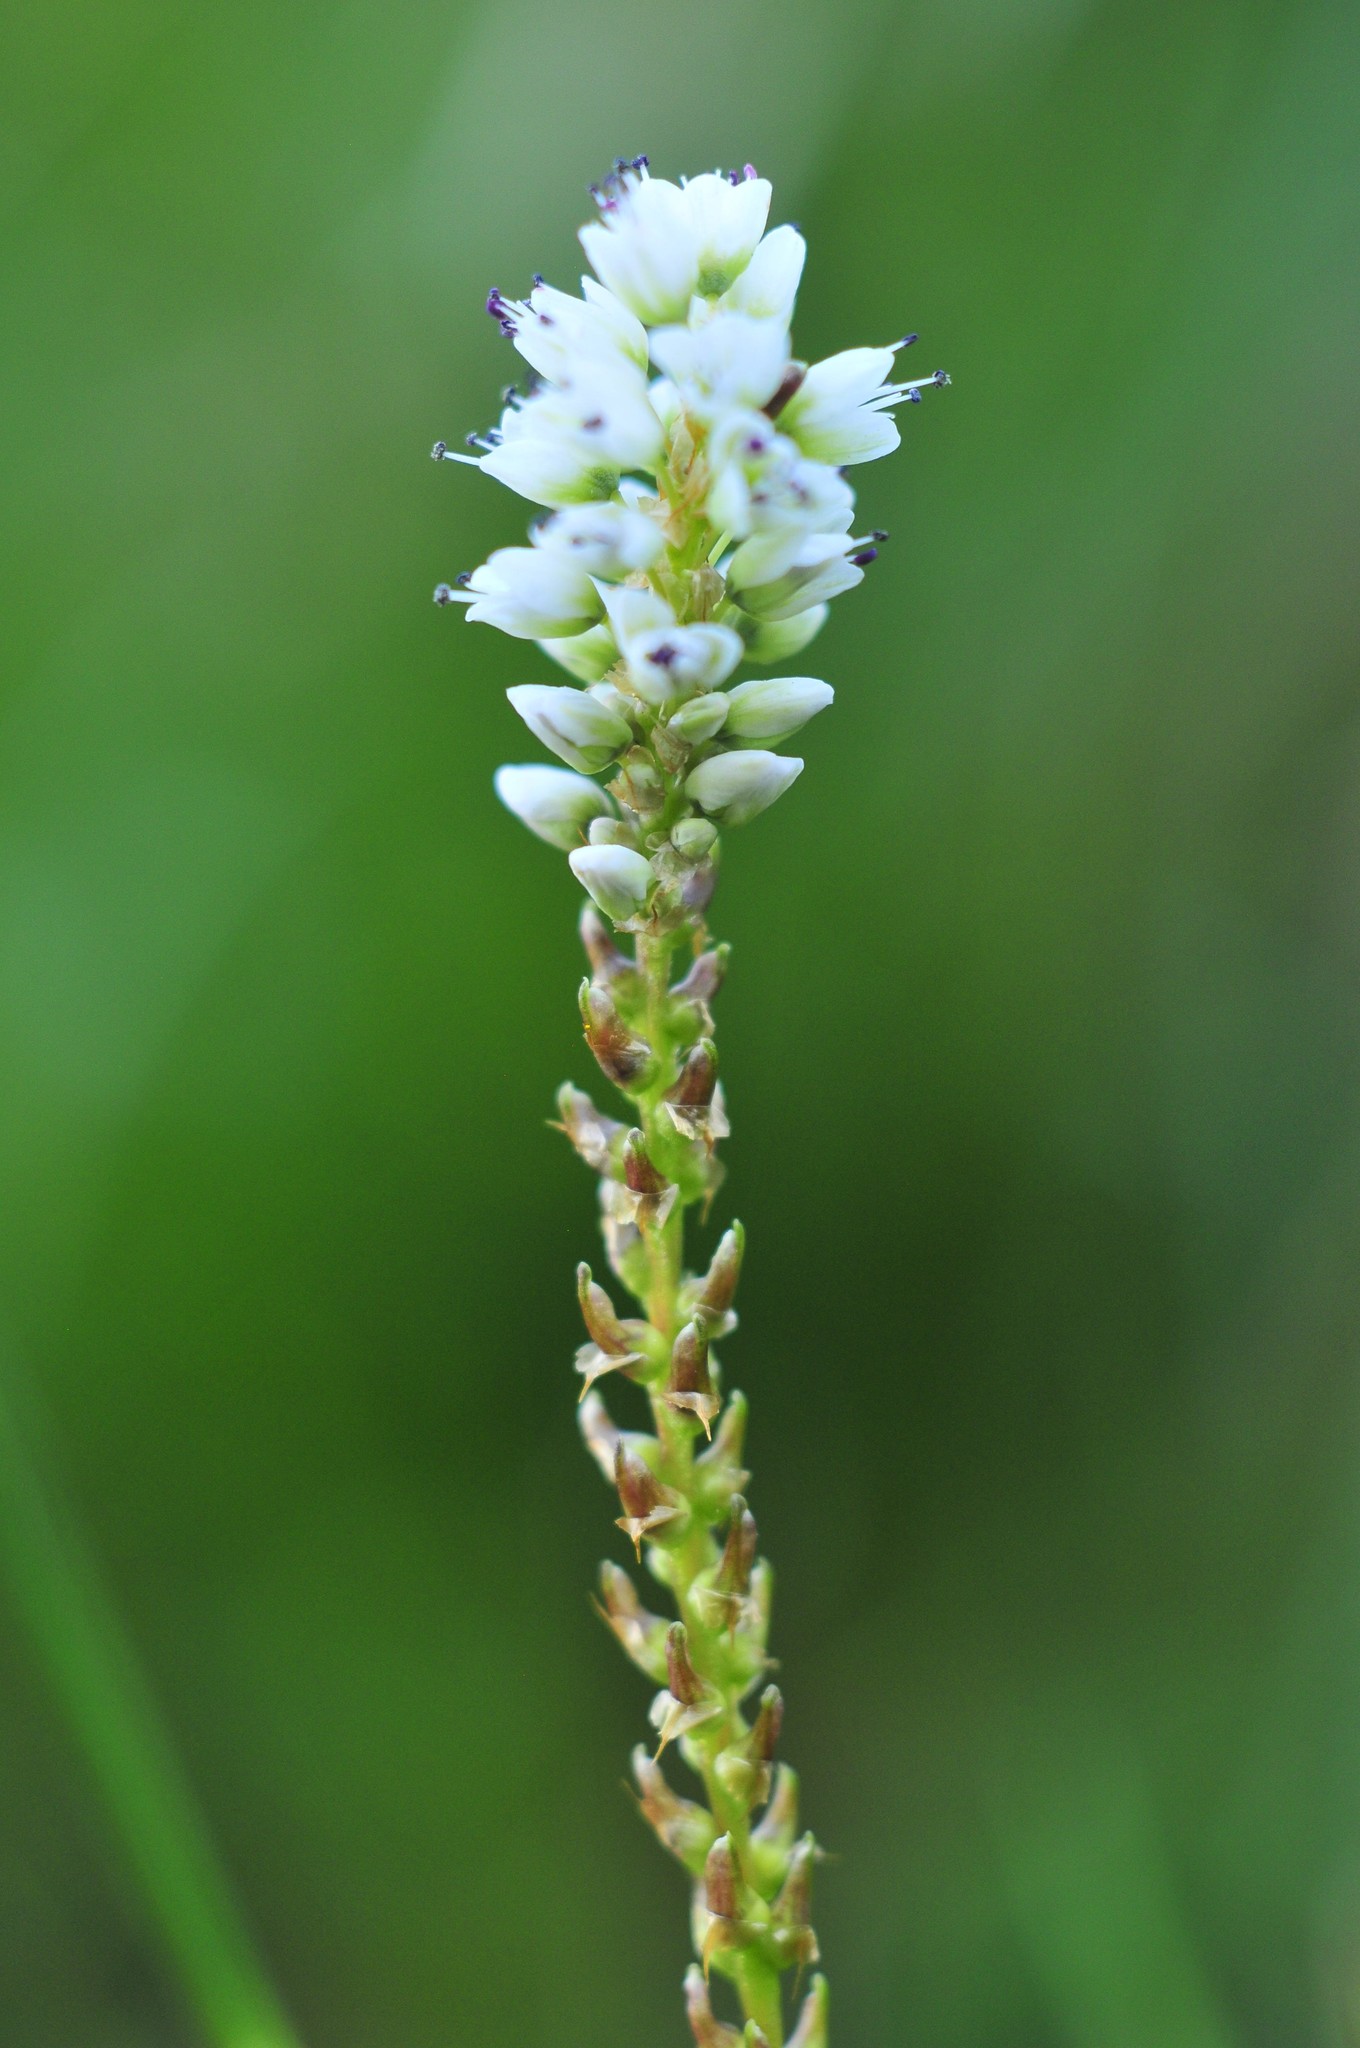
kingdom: Plantae
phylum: Tracheophyta
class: Magnoliopsida
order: Caryophyllales
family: Polygonaceae
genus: Bistorta
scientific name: Bistorta vivipara
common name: Alpine bistort
